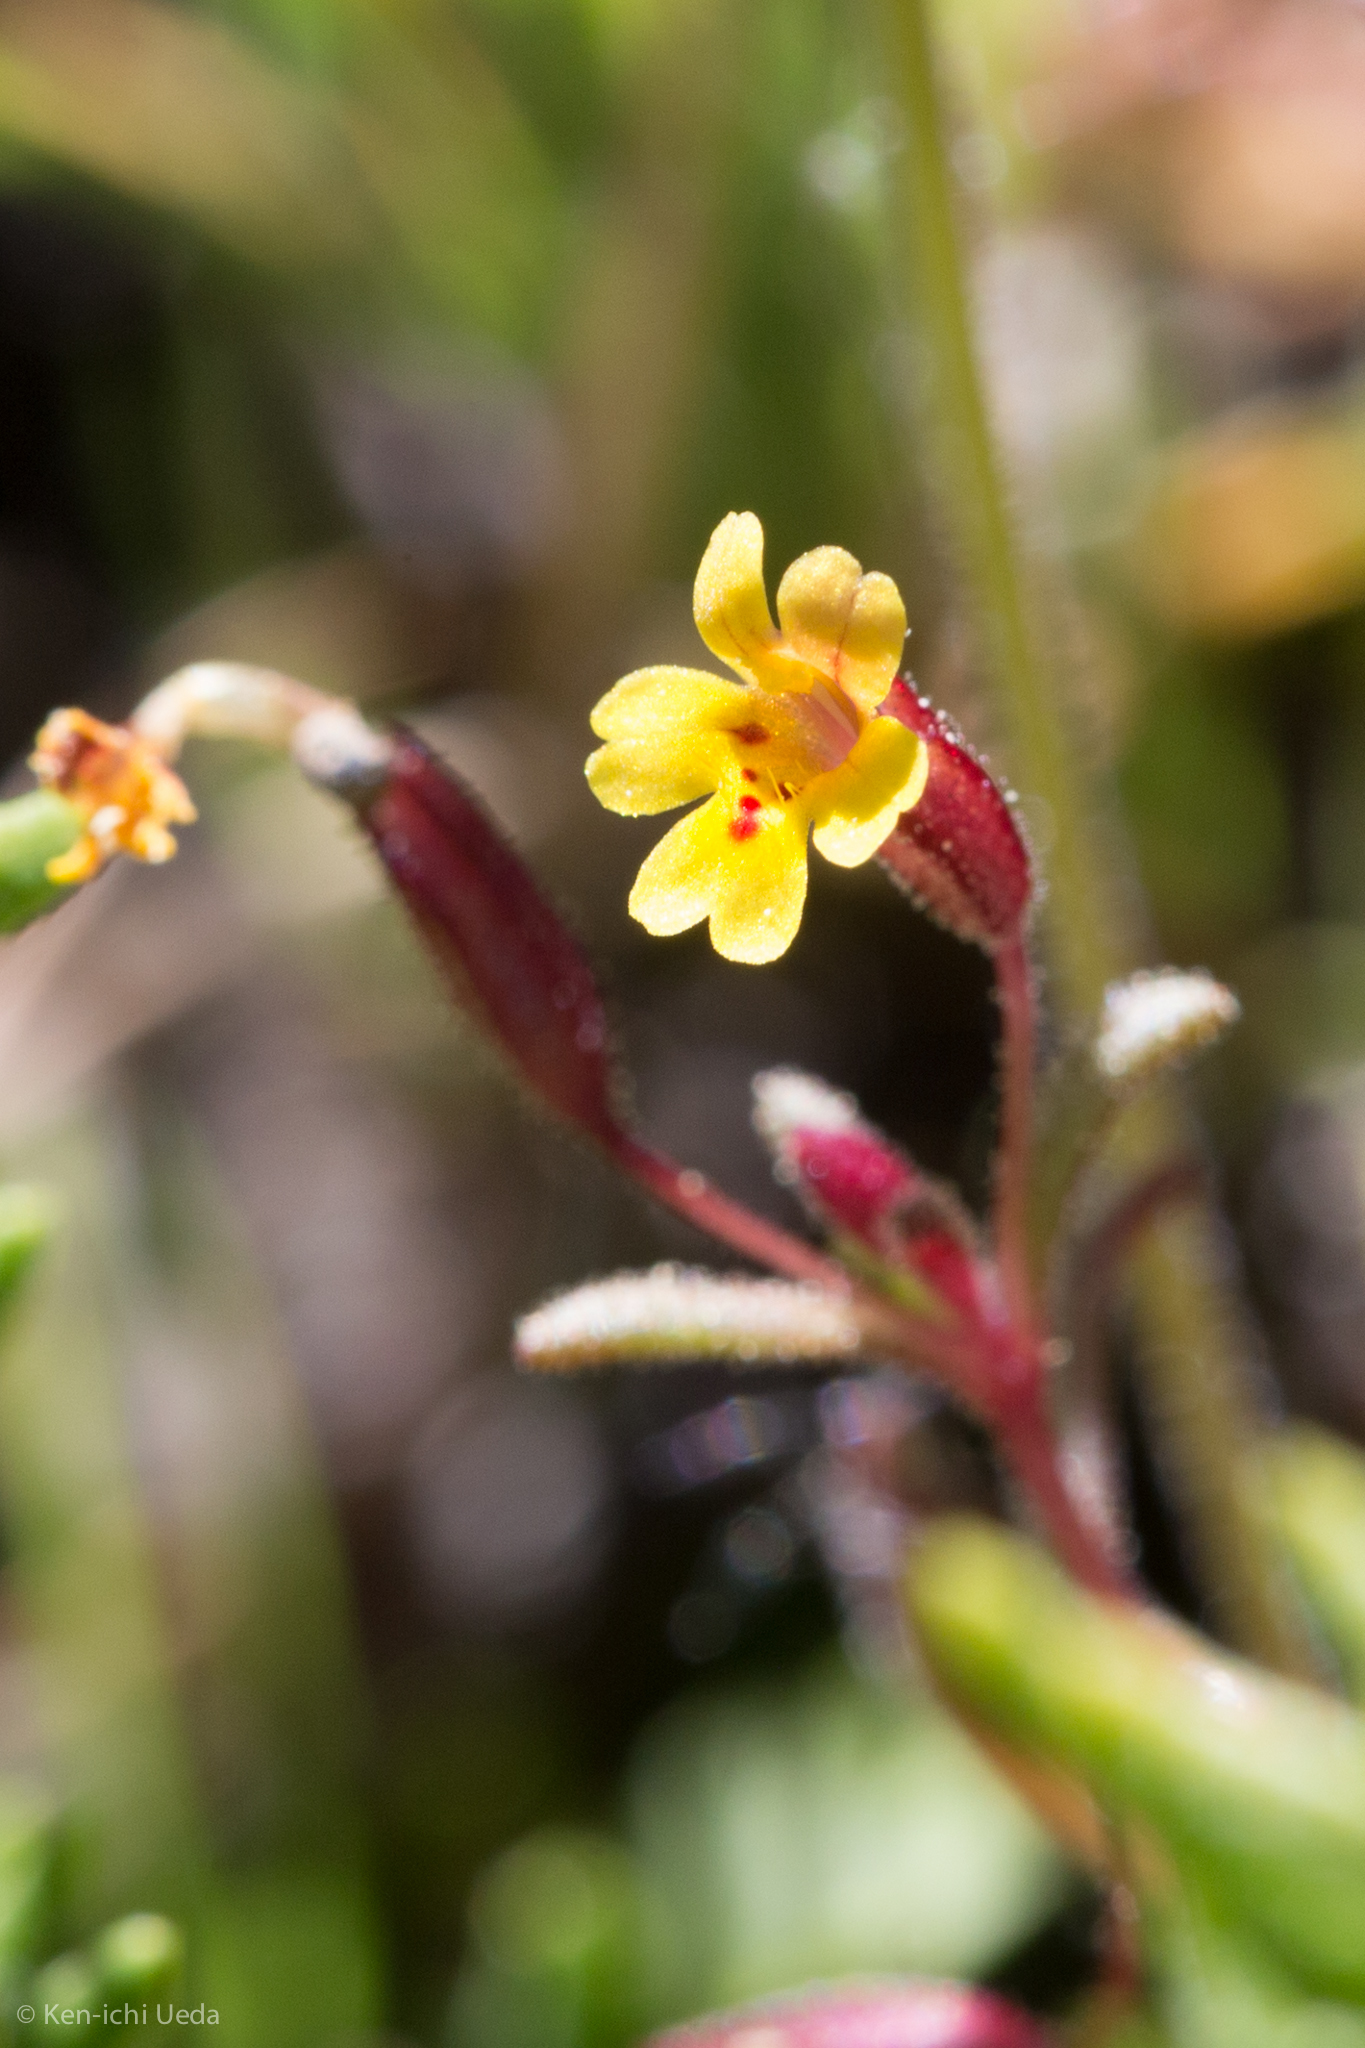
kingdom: Plantae
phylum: Tracheophyta
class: Magnoliopsida
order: Lamiales
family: Phrymaceae
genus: Erythranthe
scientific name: Erythranthe suksdorfii
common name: Suksdorf's monkeyflower
